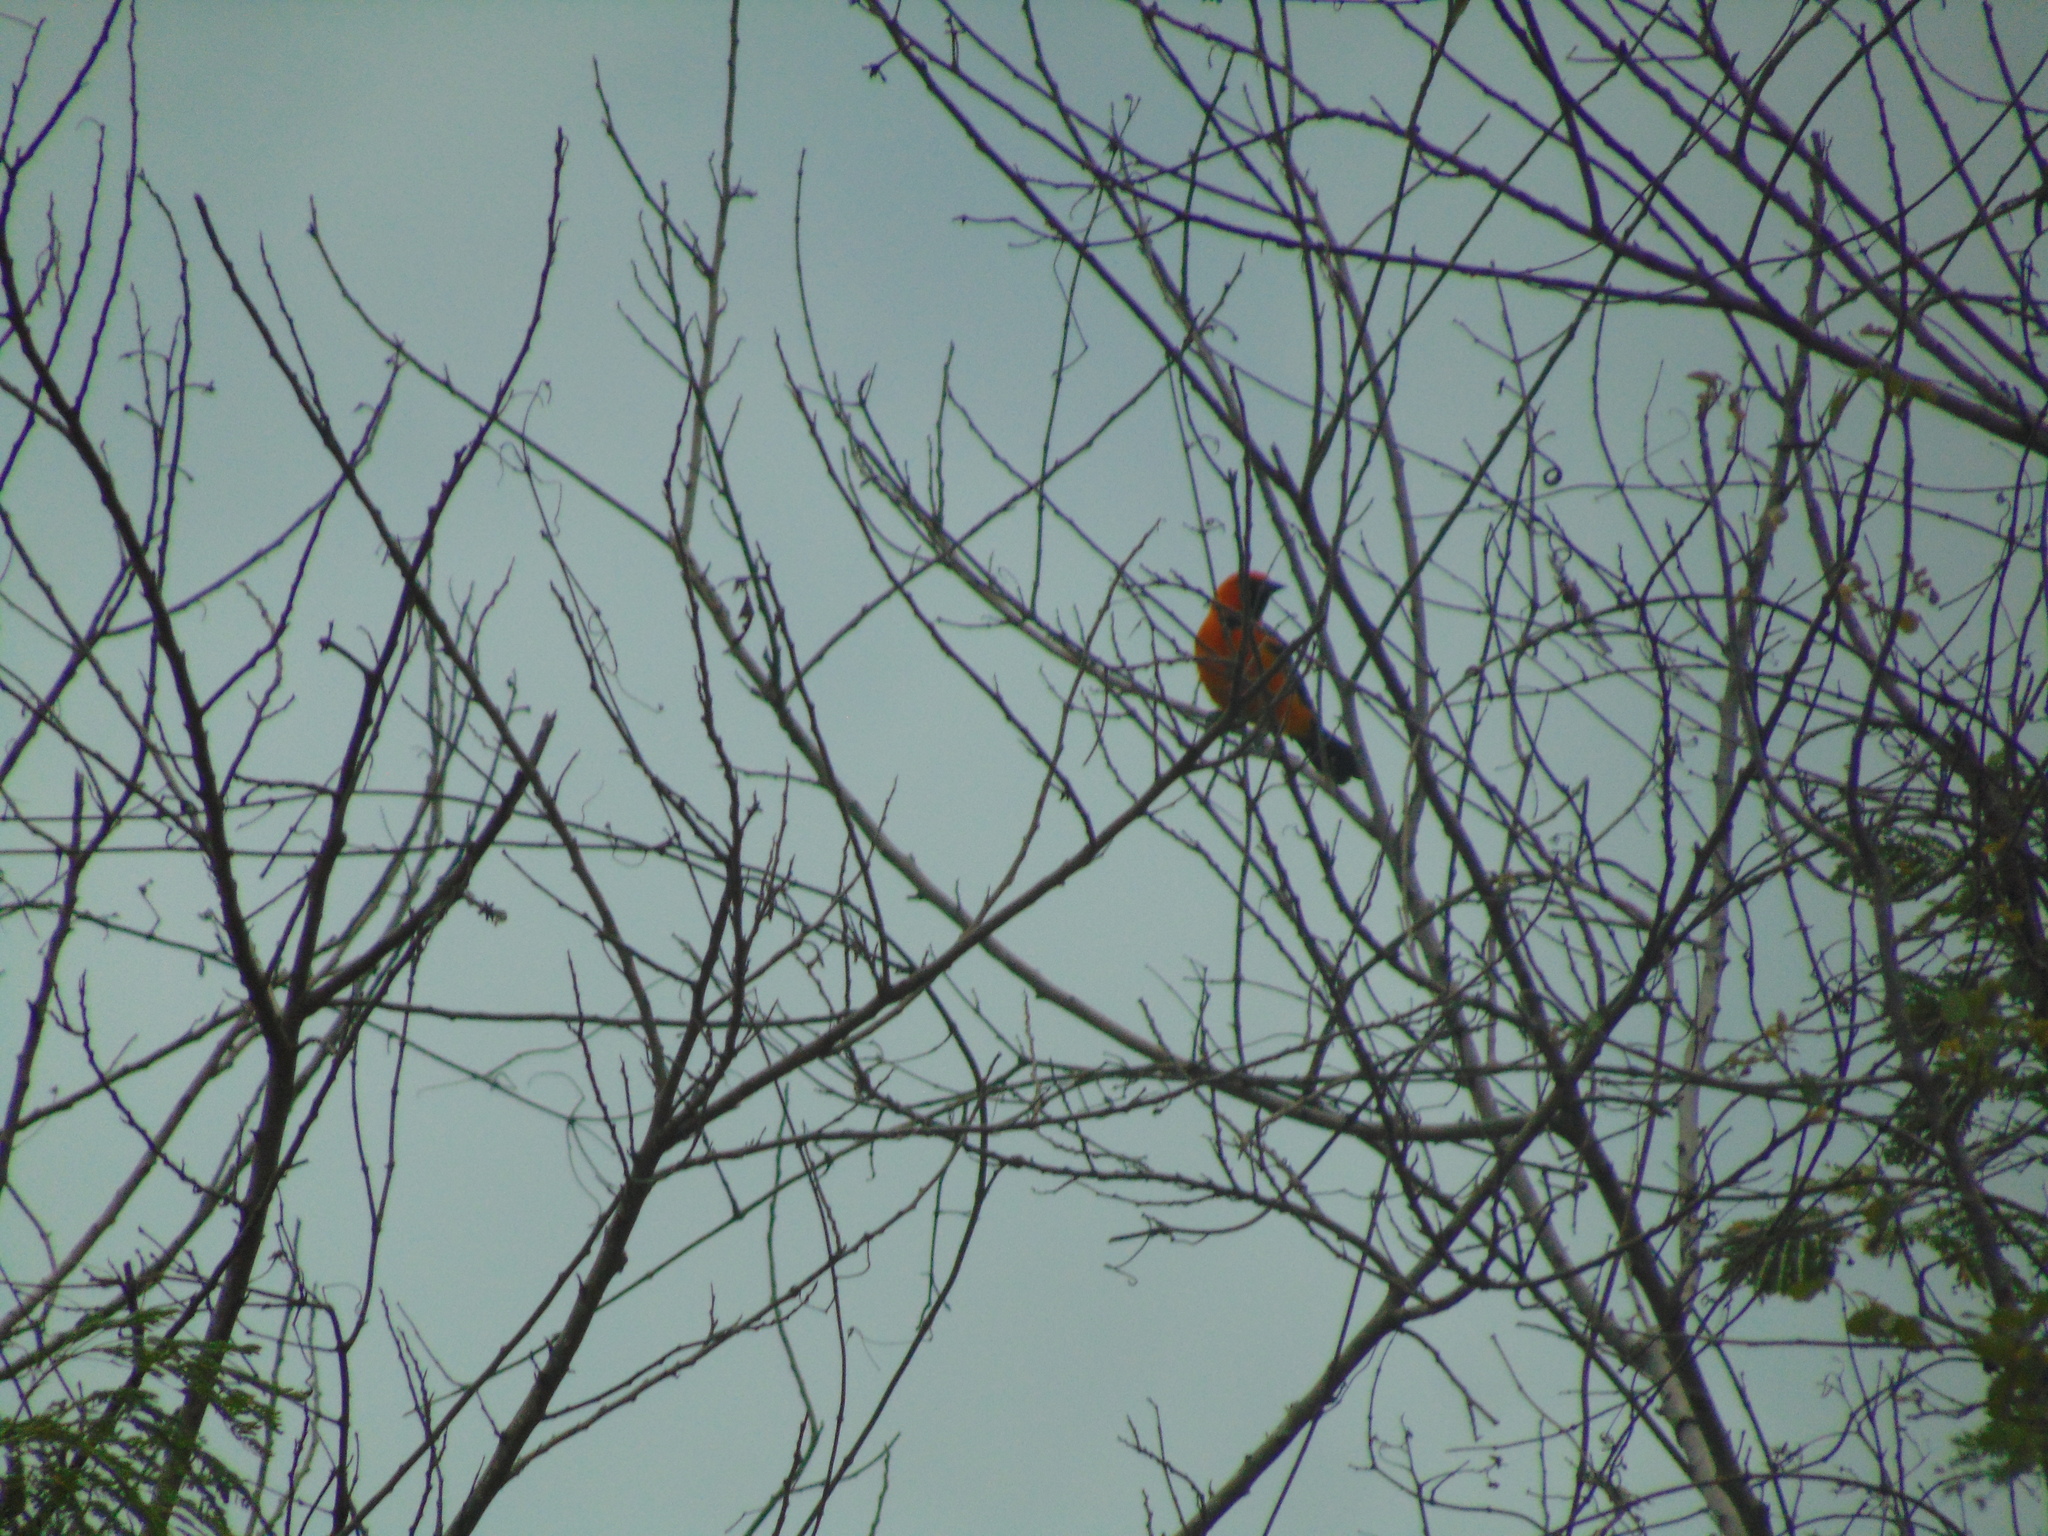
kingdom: Animalia
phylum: Chordata
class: Aves
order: Passeriformes
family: Icteridae
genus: Icterus
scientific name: Icterus gularis
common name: Altamira oriole
